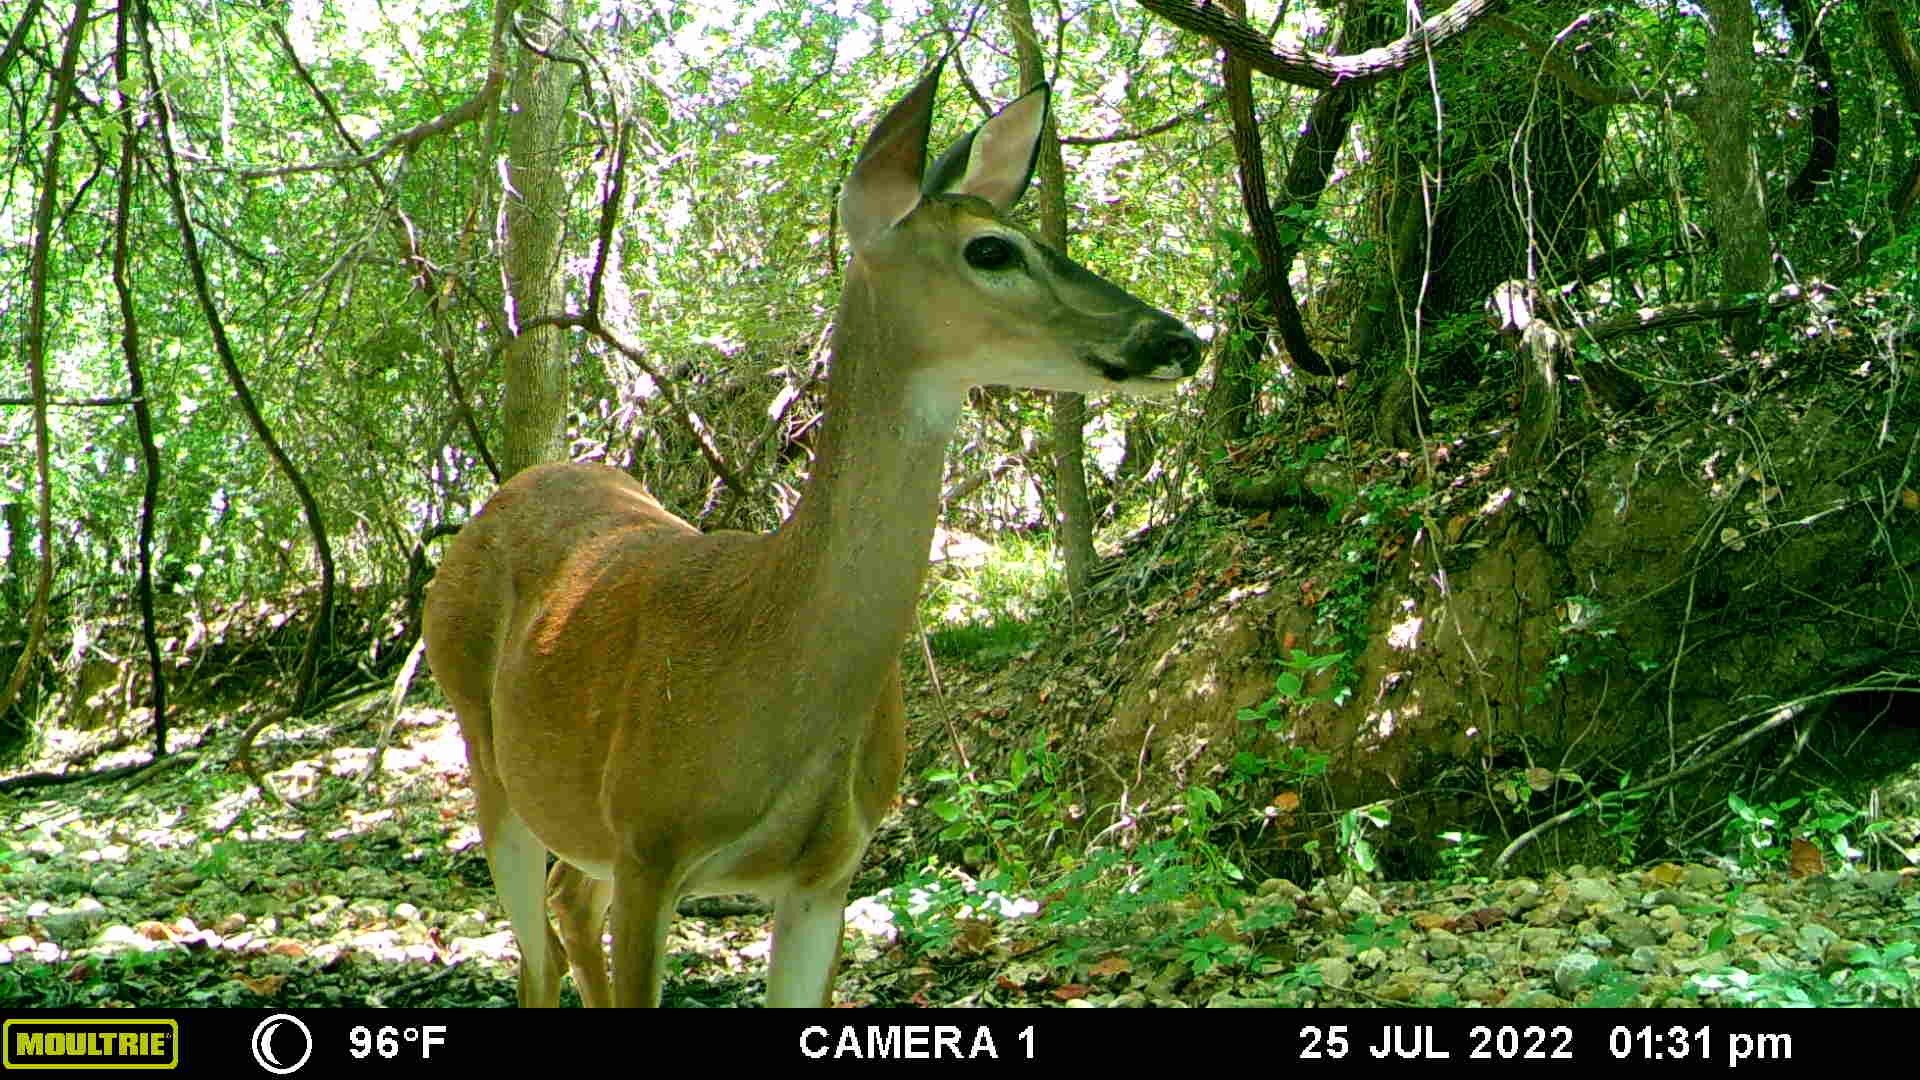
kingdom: Animalia
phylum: Chordata
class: Mammalia
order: Artiodactyla
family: Cervidae
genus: Odocoileus
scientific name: Odocoileus virginianus
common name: White-tailed deer
